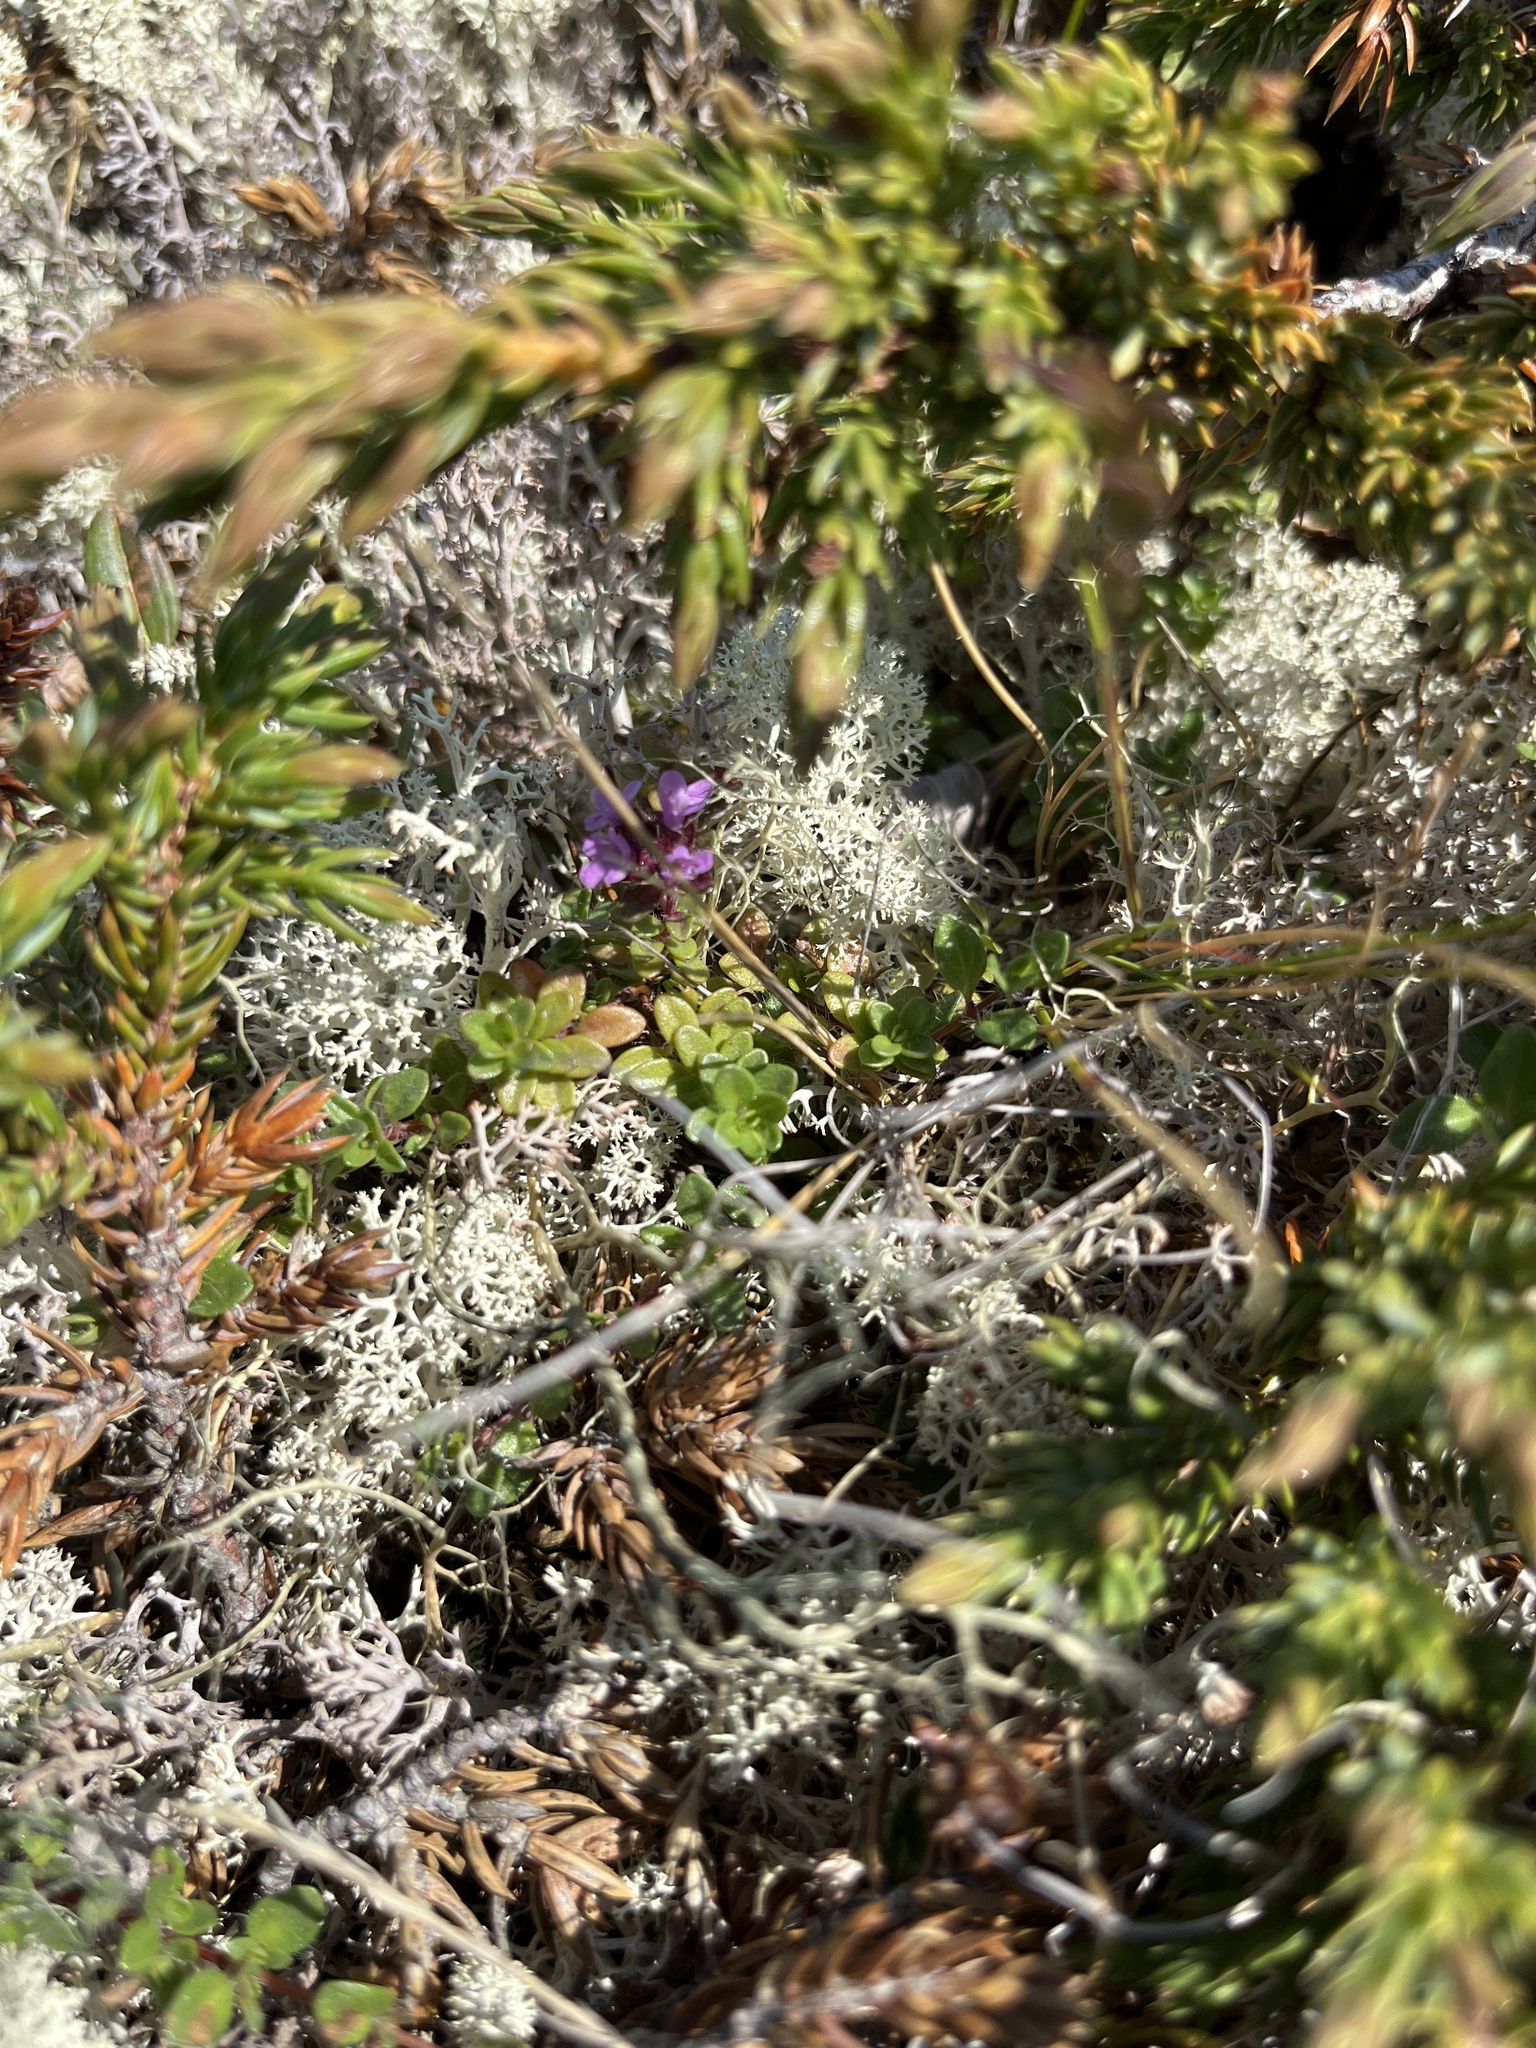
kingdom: Plantae
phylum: Tracheophyta
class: Magnoliopsida
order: Lamiales
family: Lamiaceae
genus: Thymus
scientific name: Thymus praecox
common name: Wild thyme
